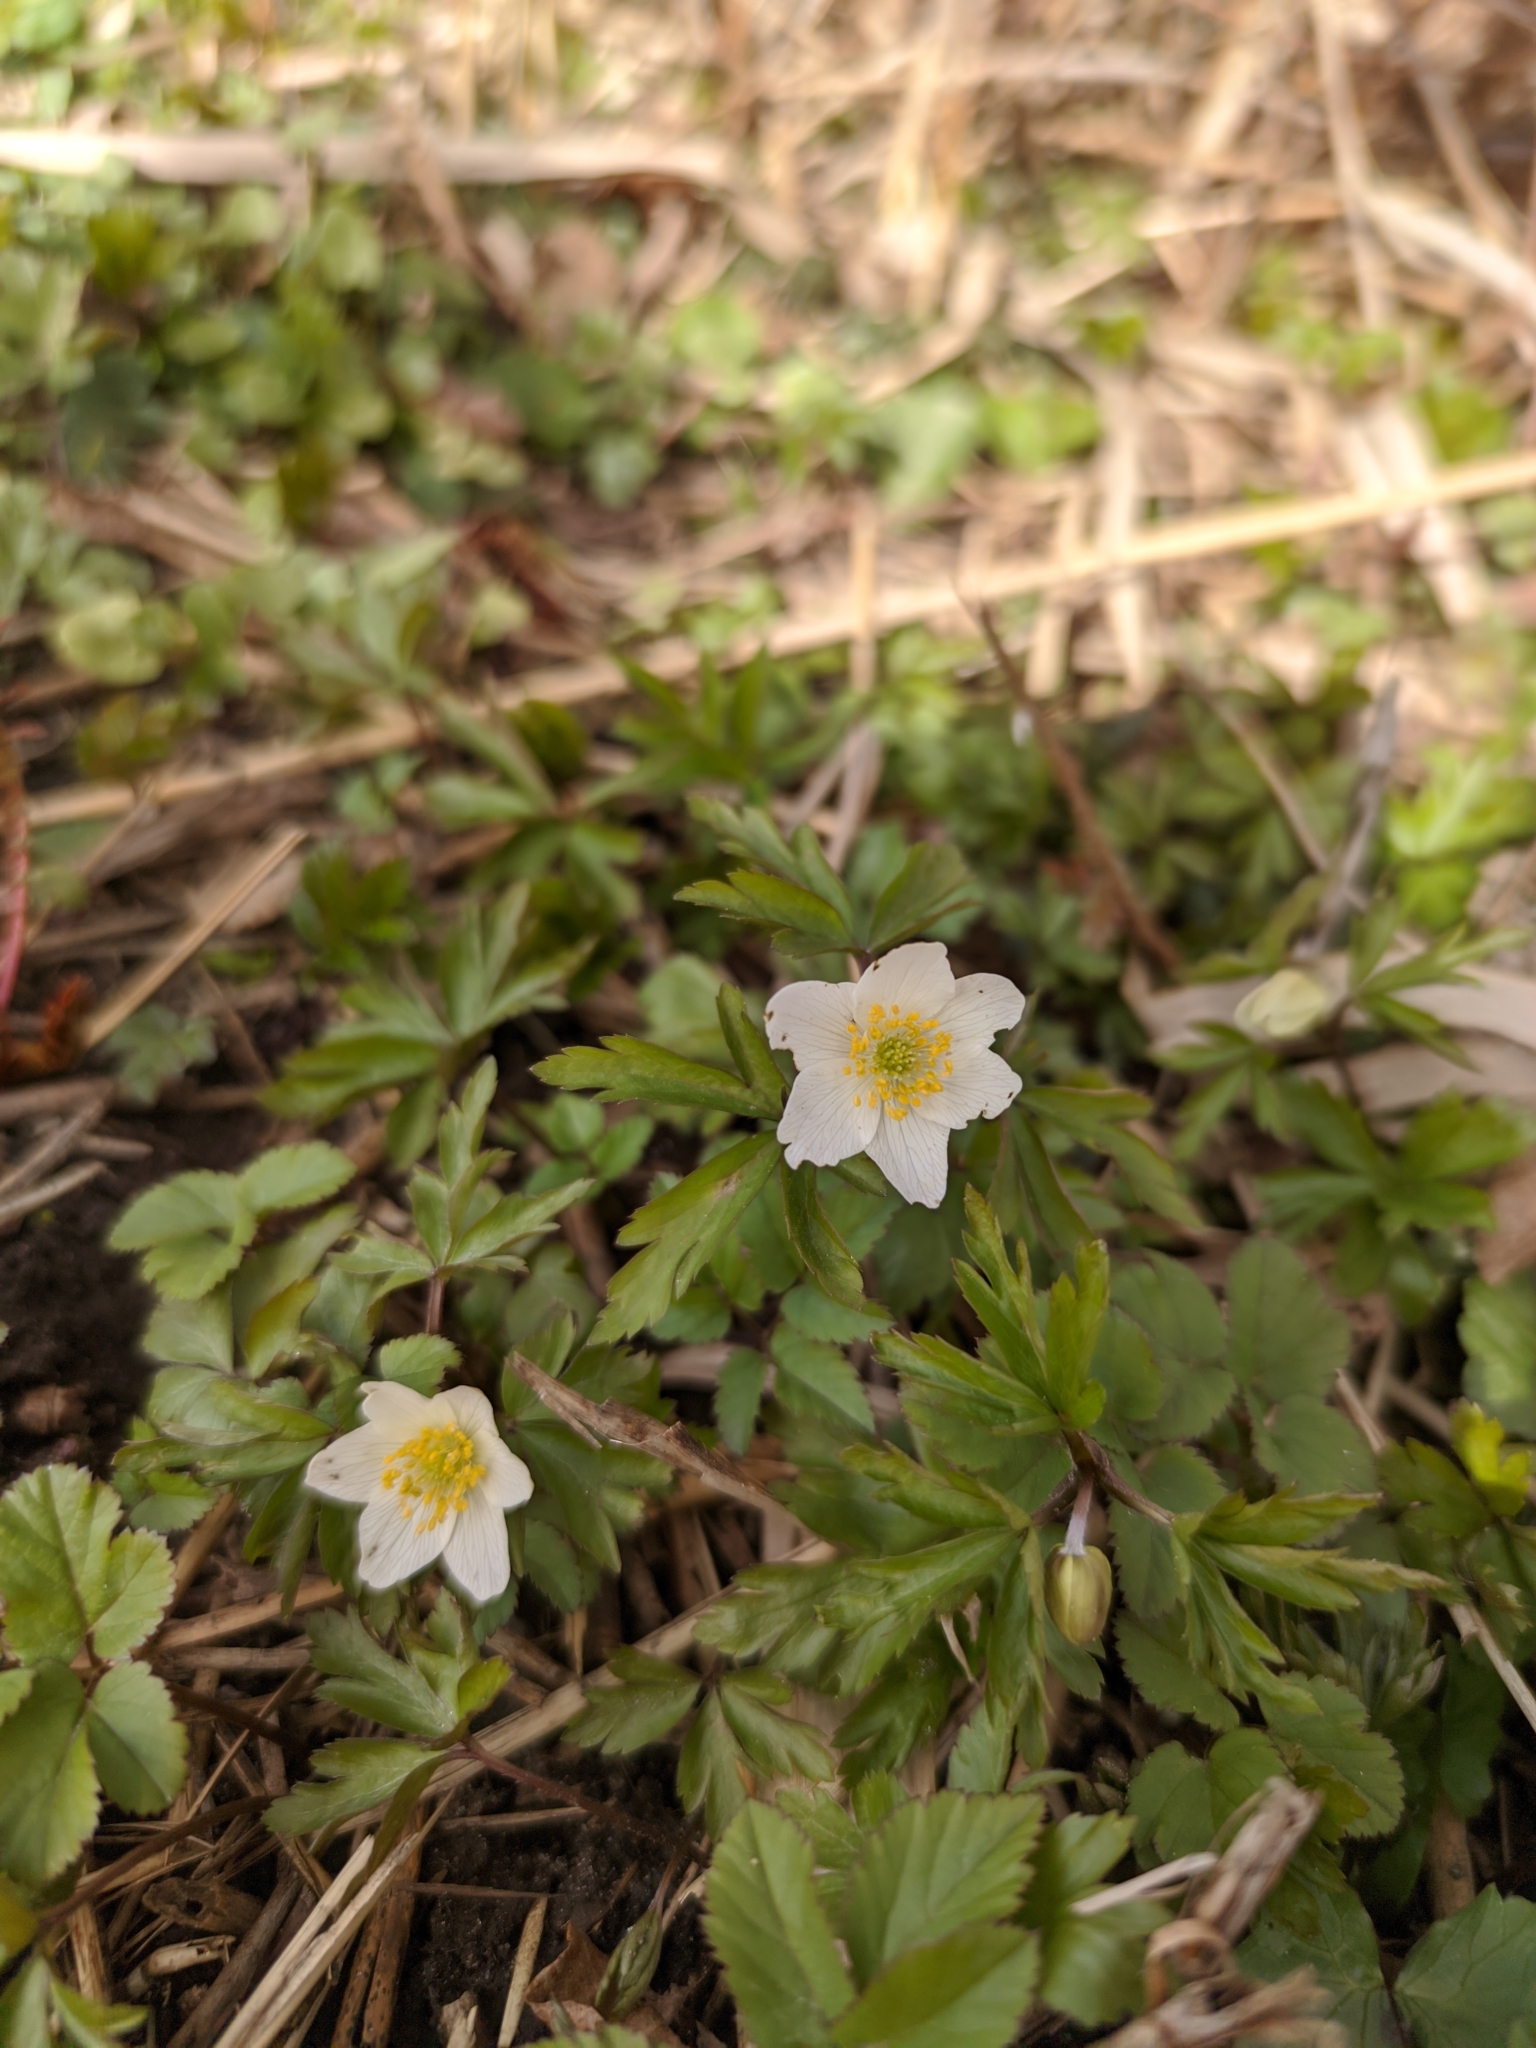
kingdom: Plantae
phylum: Tracheophyta
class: Magnoliopsida
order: Ranunculales
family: Ranunculaceae
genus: Anemone
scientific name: Anemone nemorosa
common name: Wood anemone
